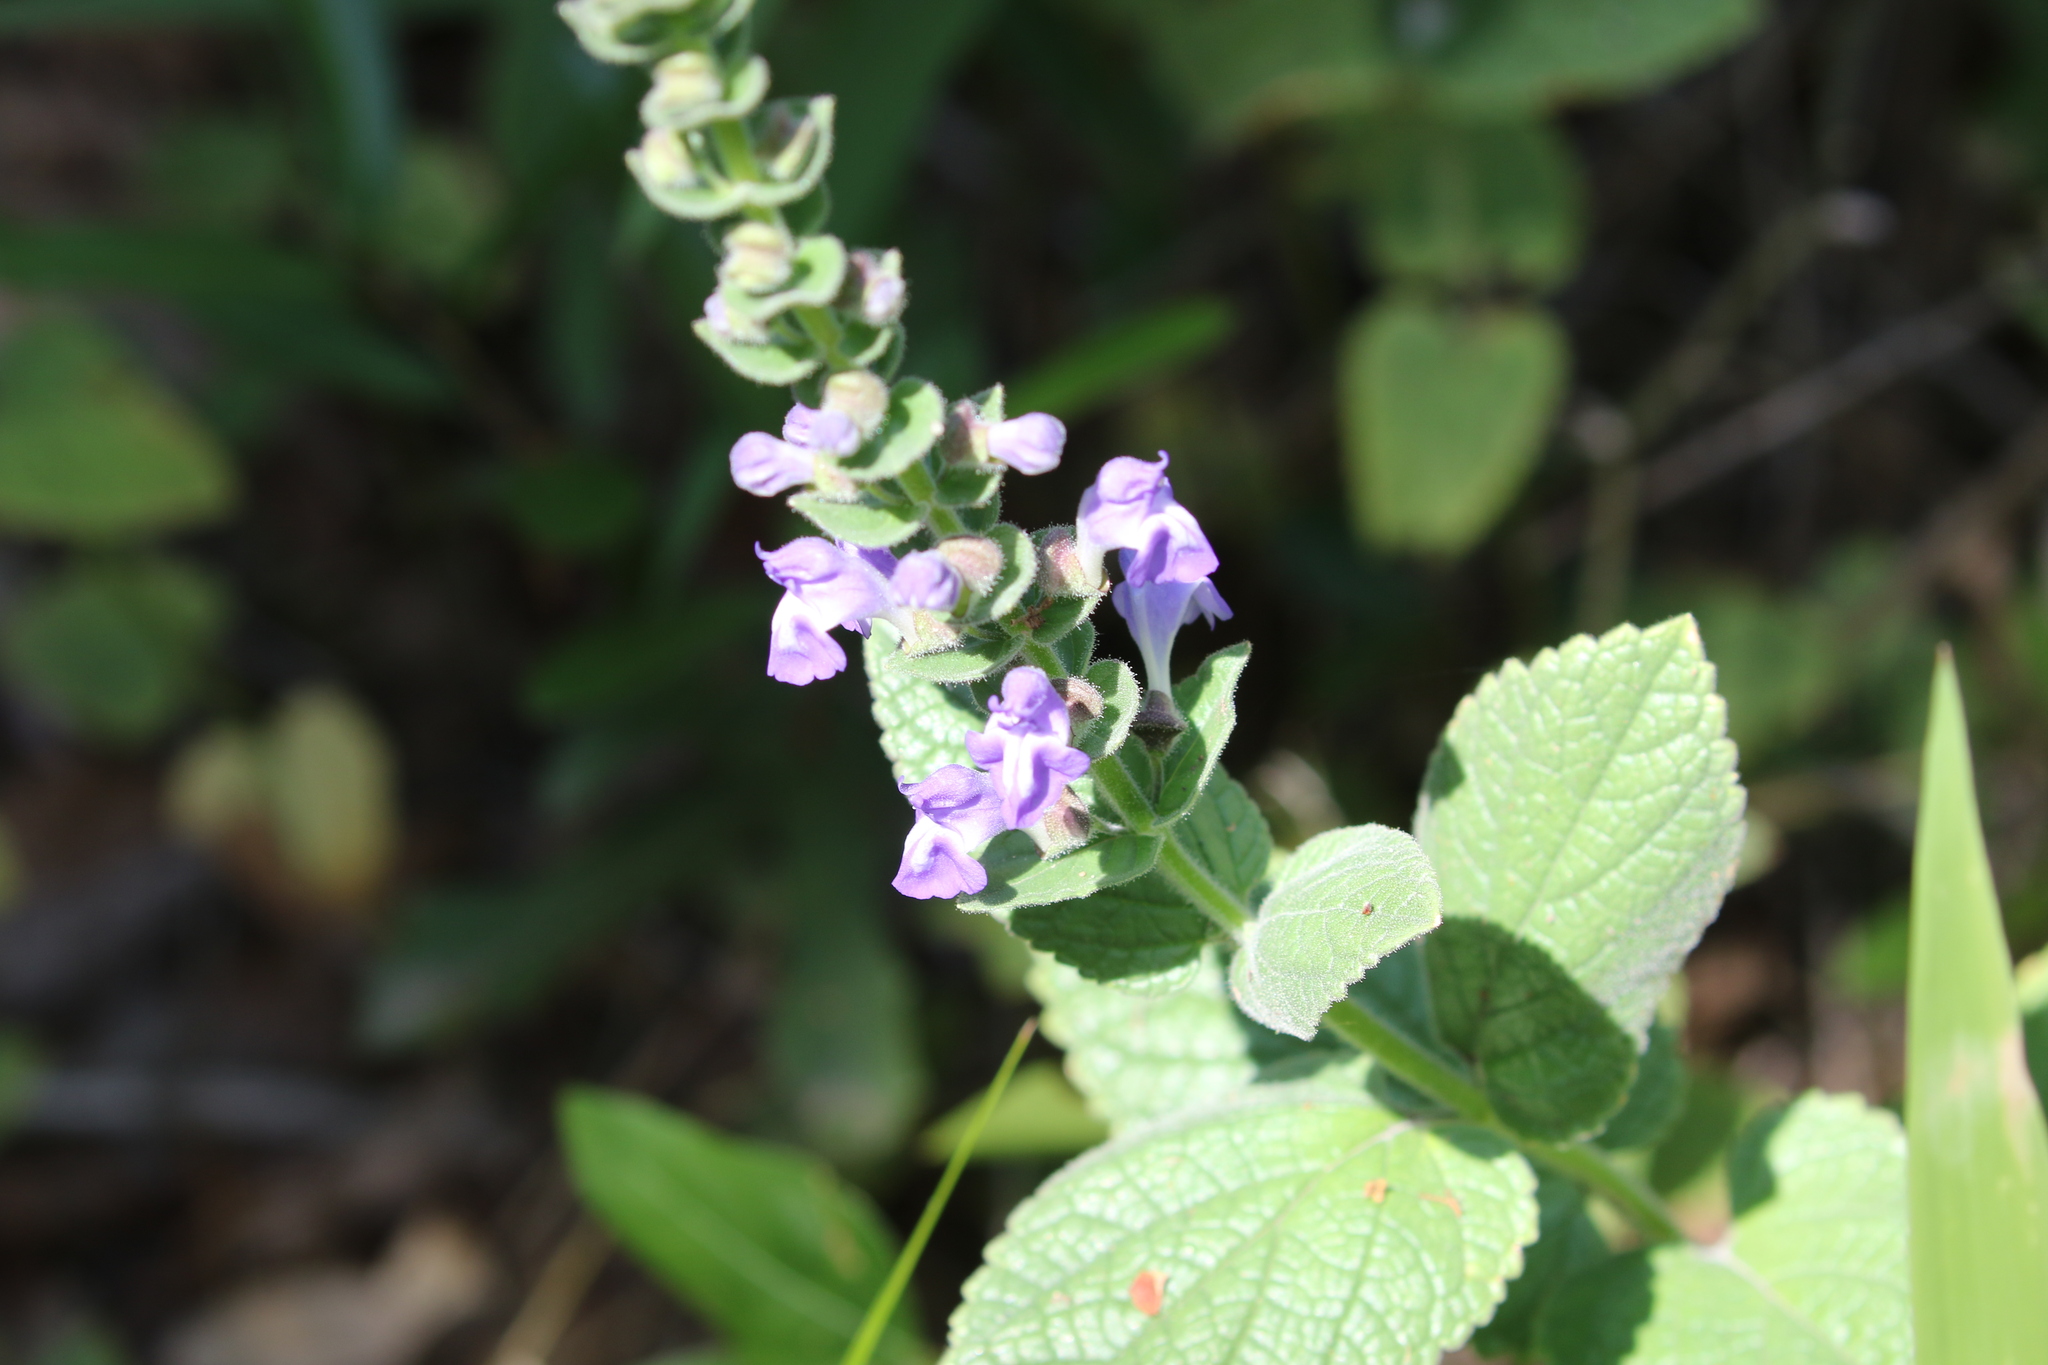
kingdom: Plantae
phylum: Tracheophyta
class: Magnoliopsida
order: Lamiales
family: Lamiaceae
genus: Scutellaria
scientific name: Scutellaria ovata
